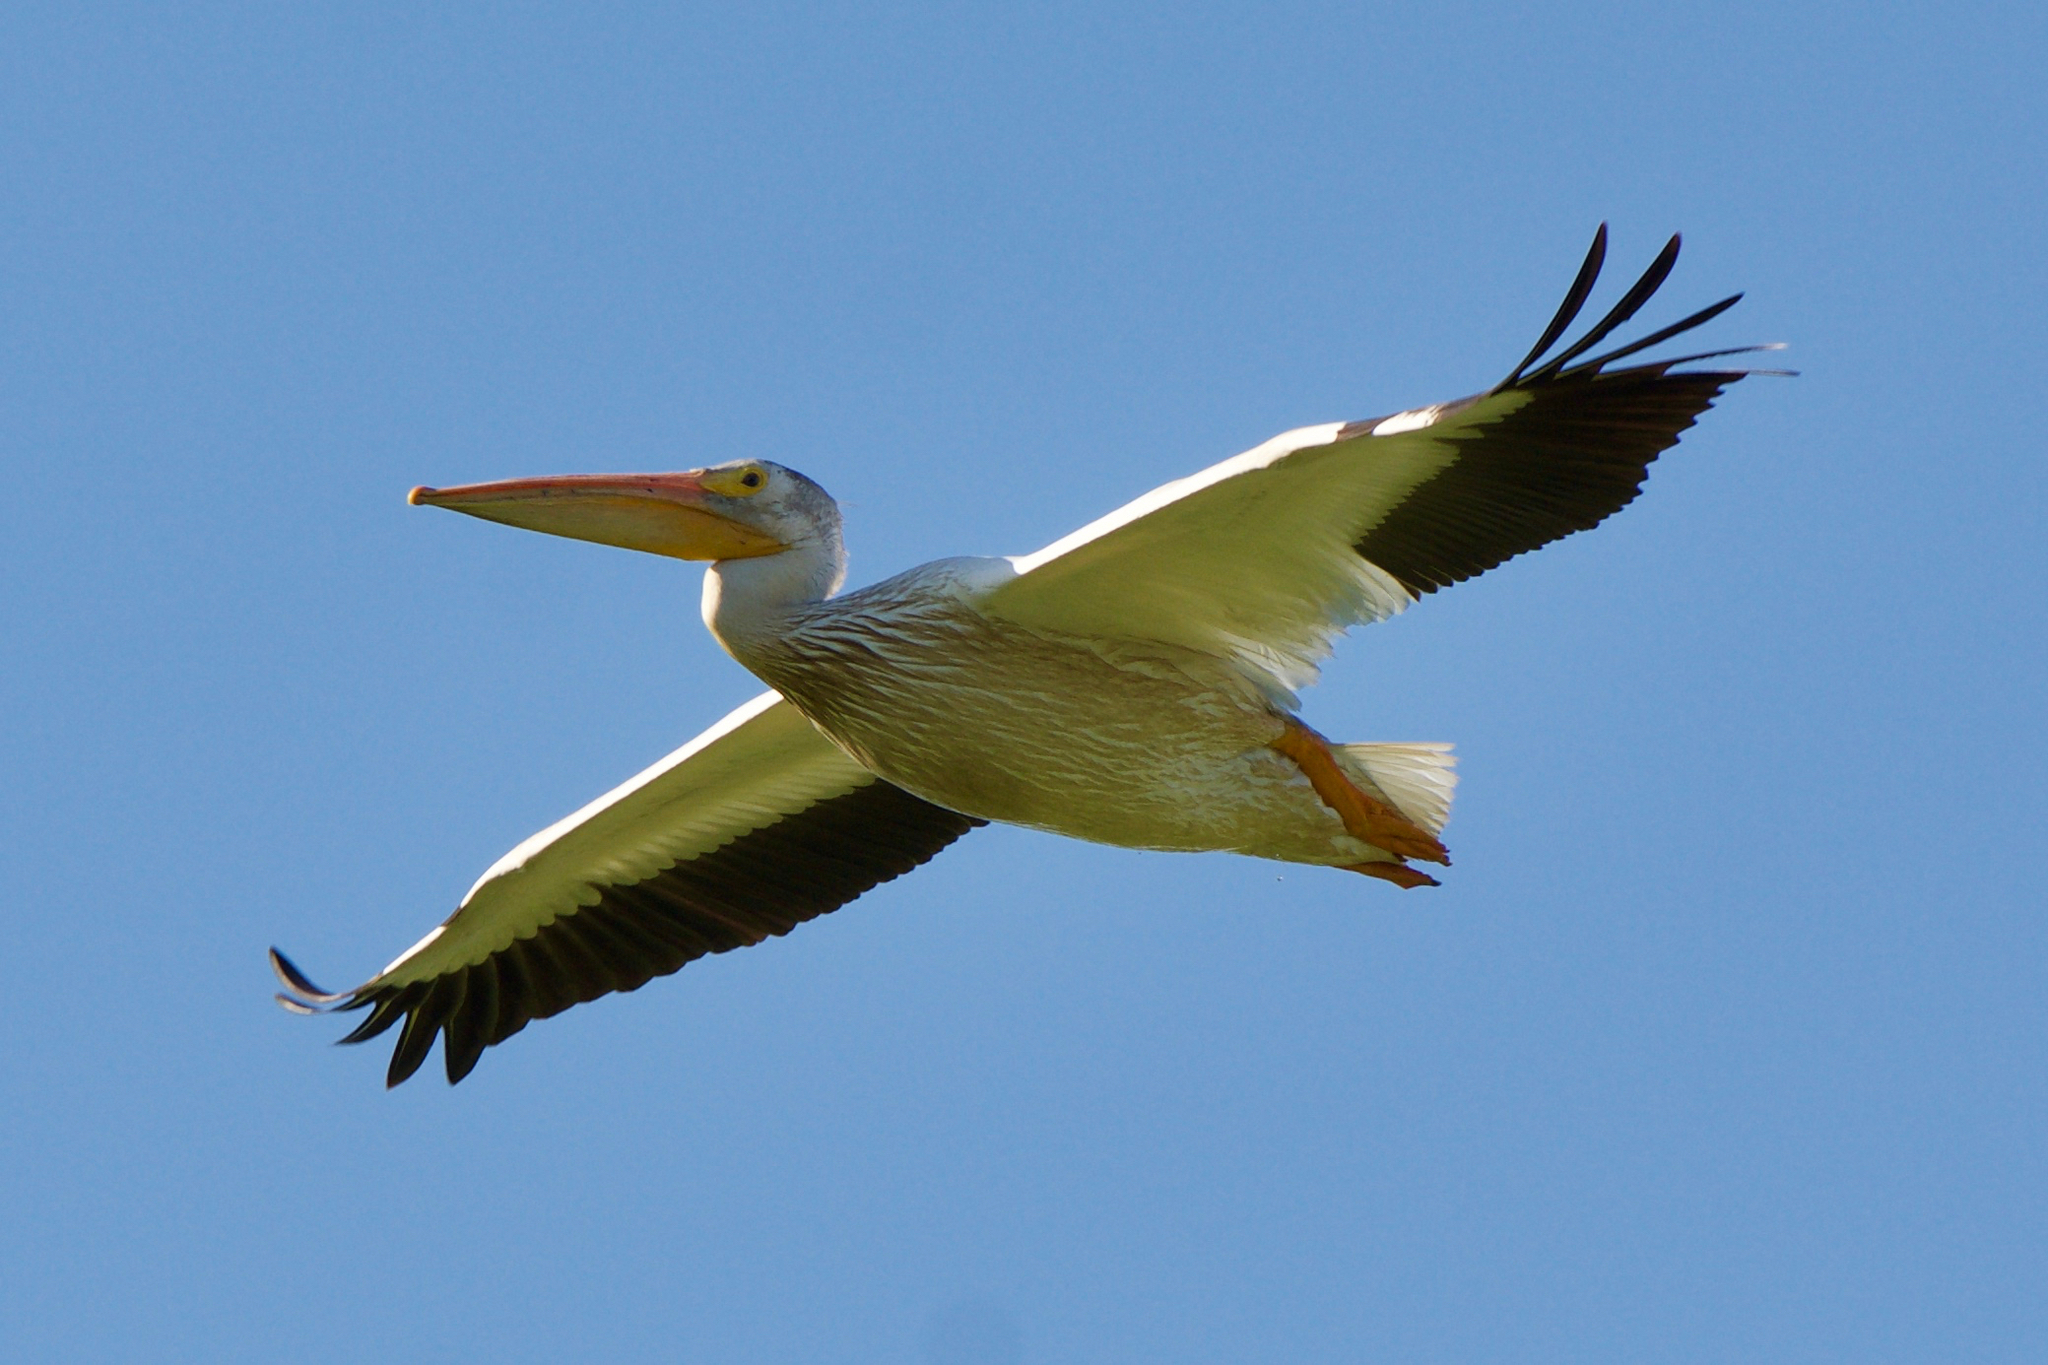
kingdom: Animalia
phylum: Chordata
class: Aves
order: Pelecaniformes
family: Pelecanidae
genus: Pelecanus
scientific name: Pelecanus erythrorhynchos
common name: American white pelican
